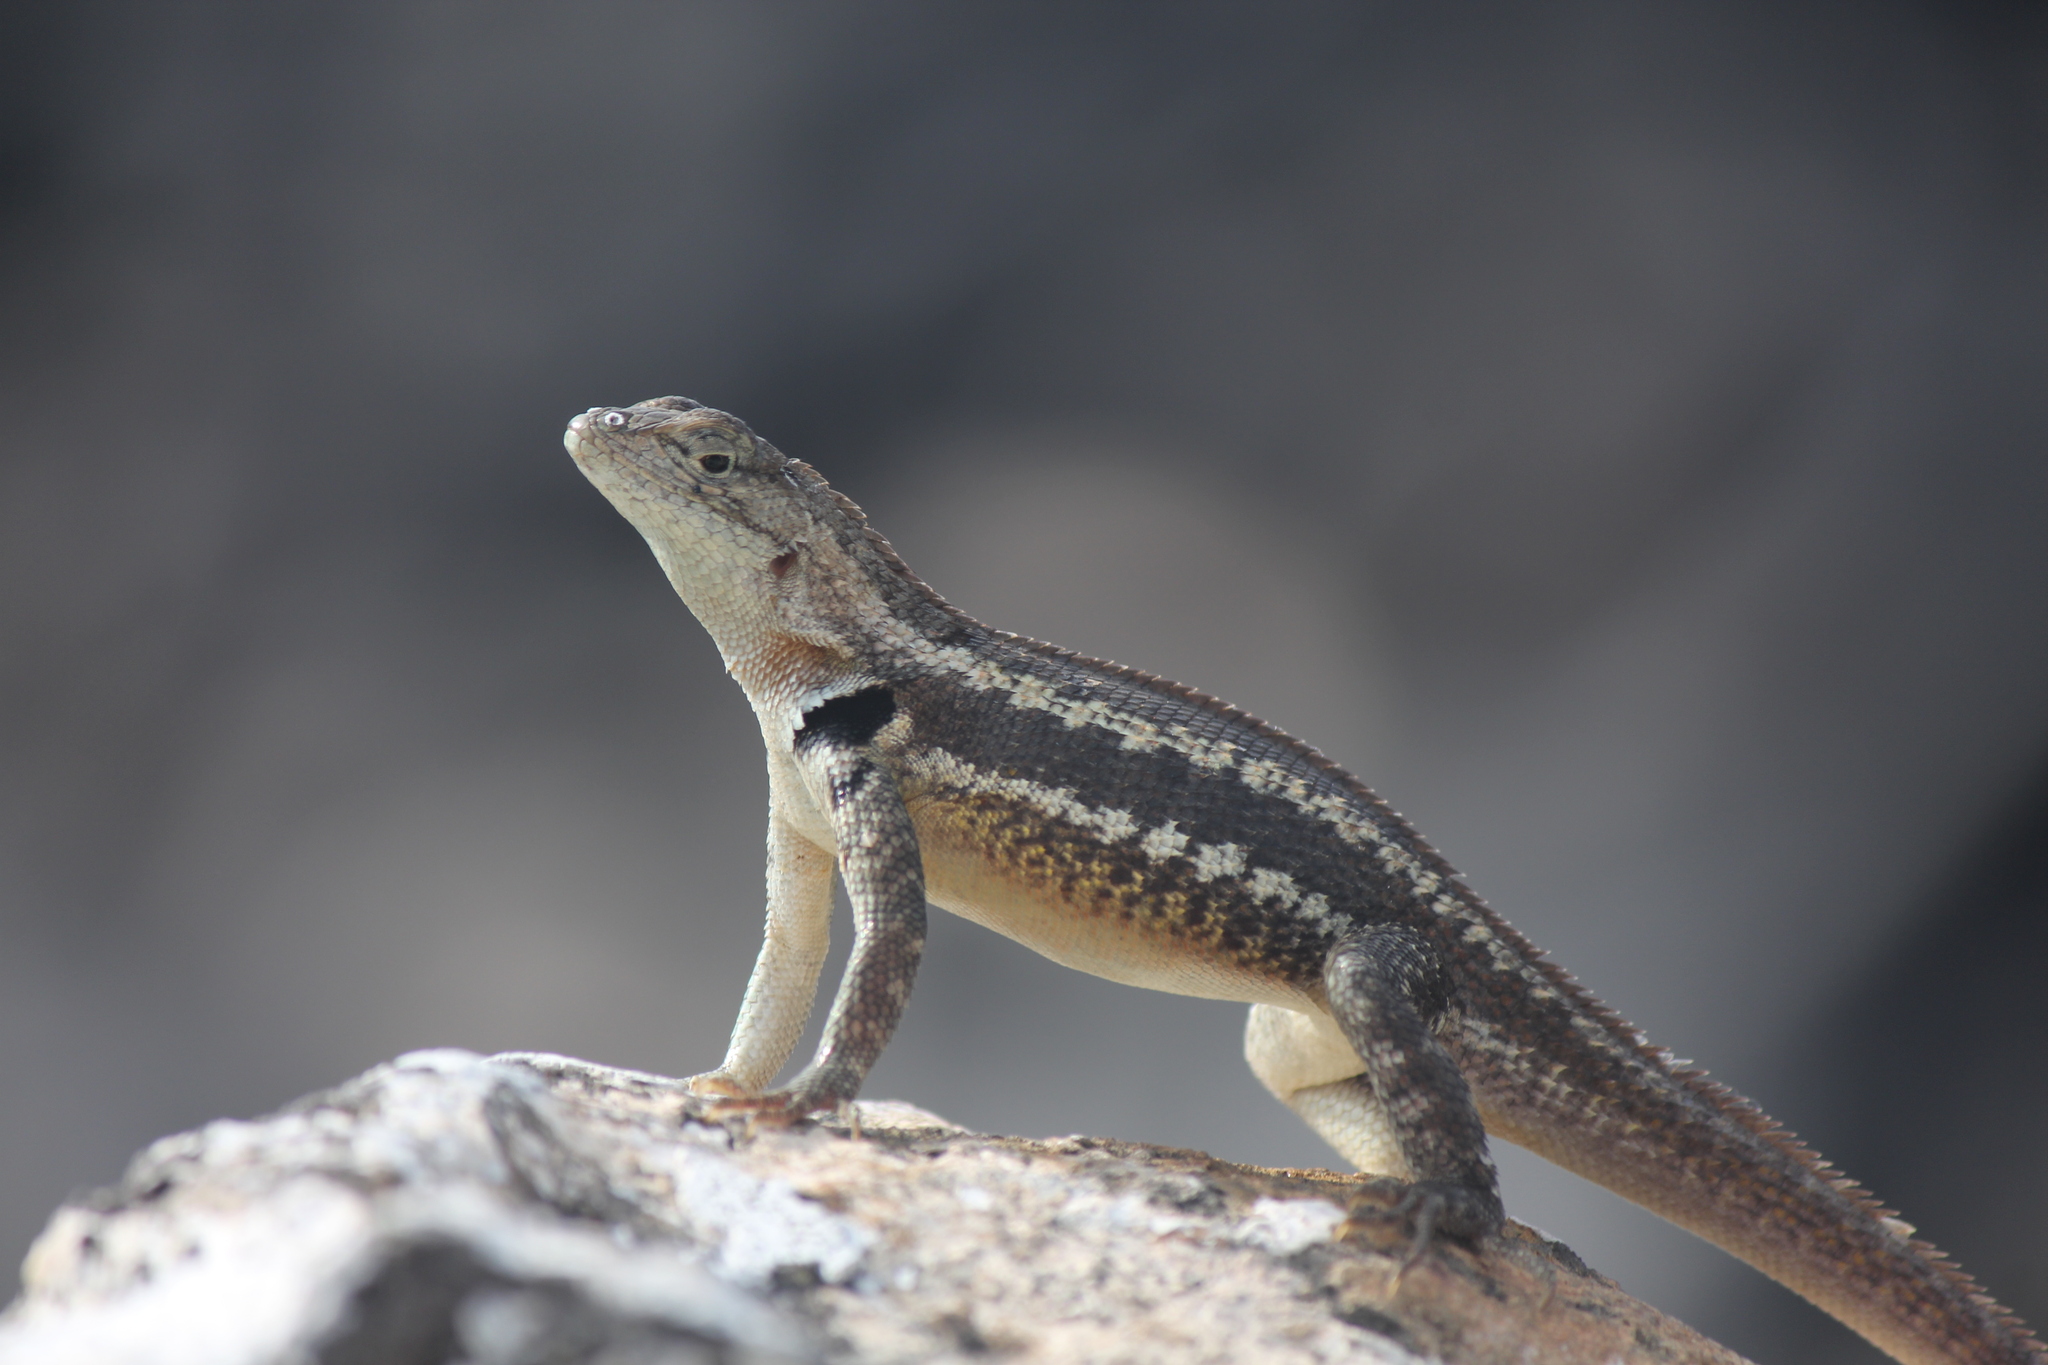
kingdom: Animalia
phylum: Chordata
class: Squamata
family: Tropiduridae
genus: Microlophus
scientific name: Microlophus bivittatus
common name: San cristobal lava lizard
